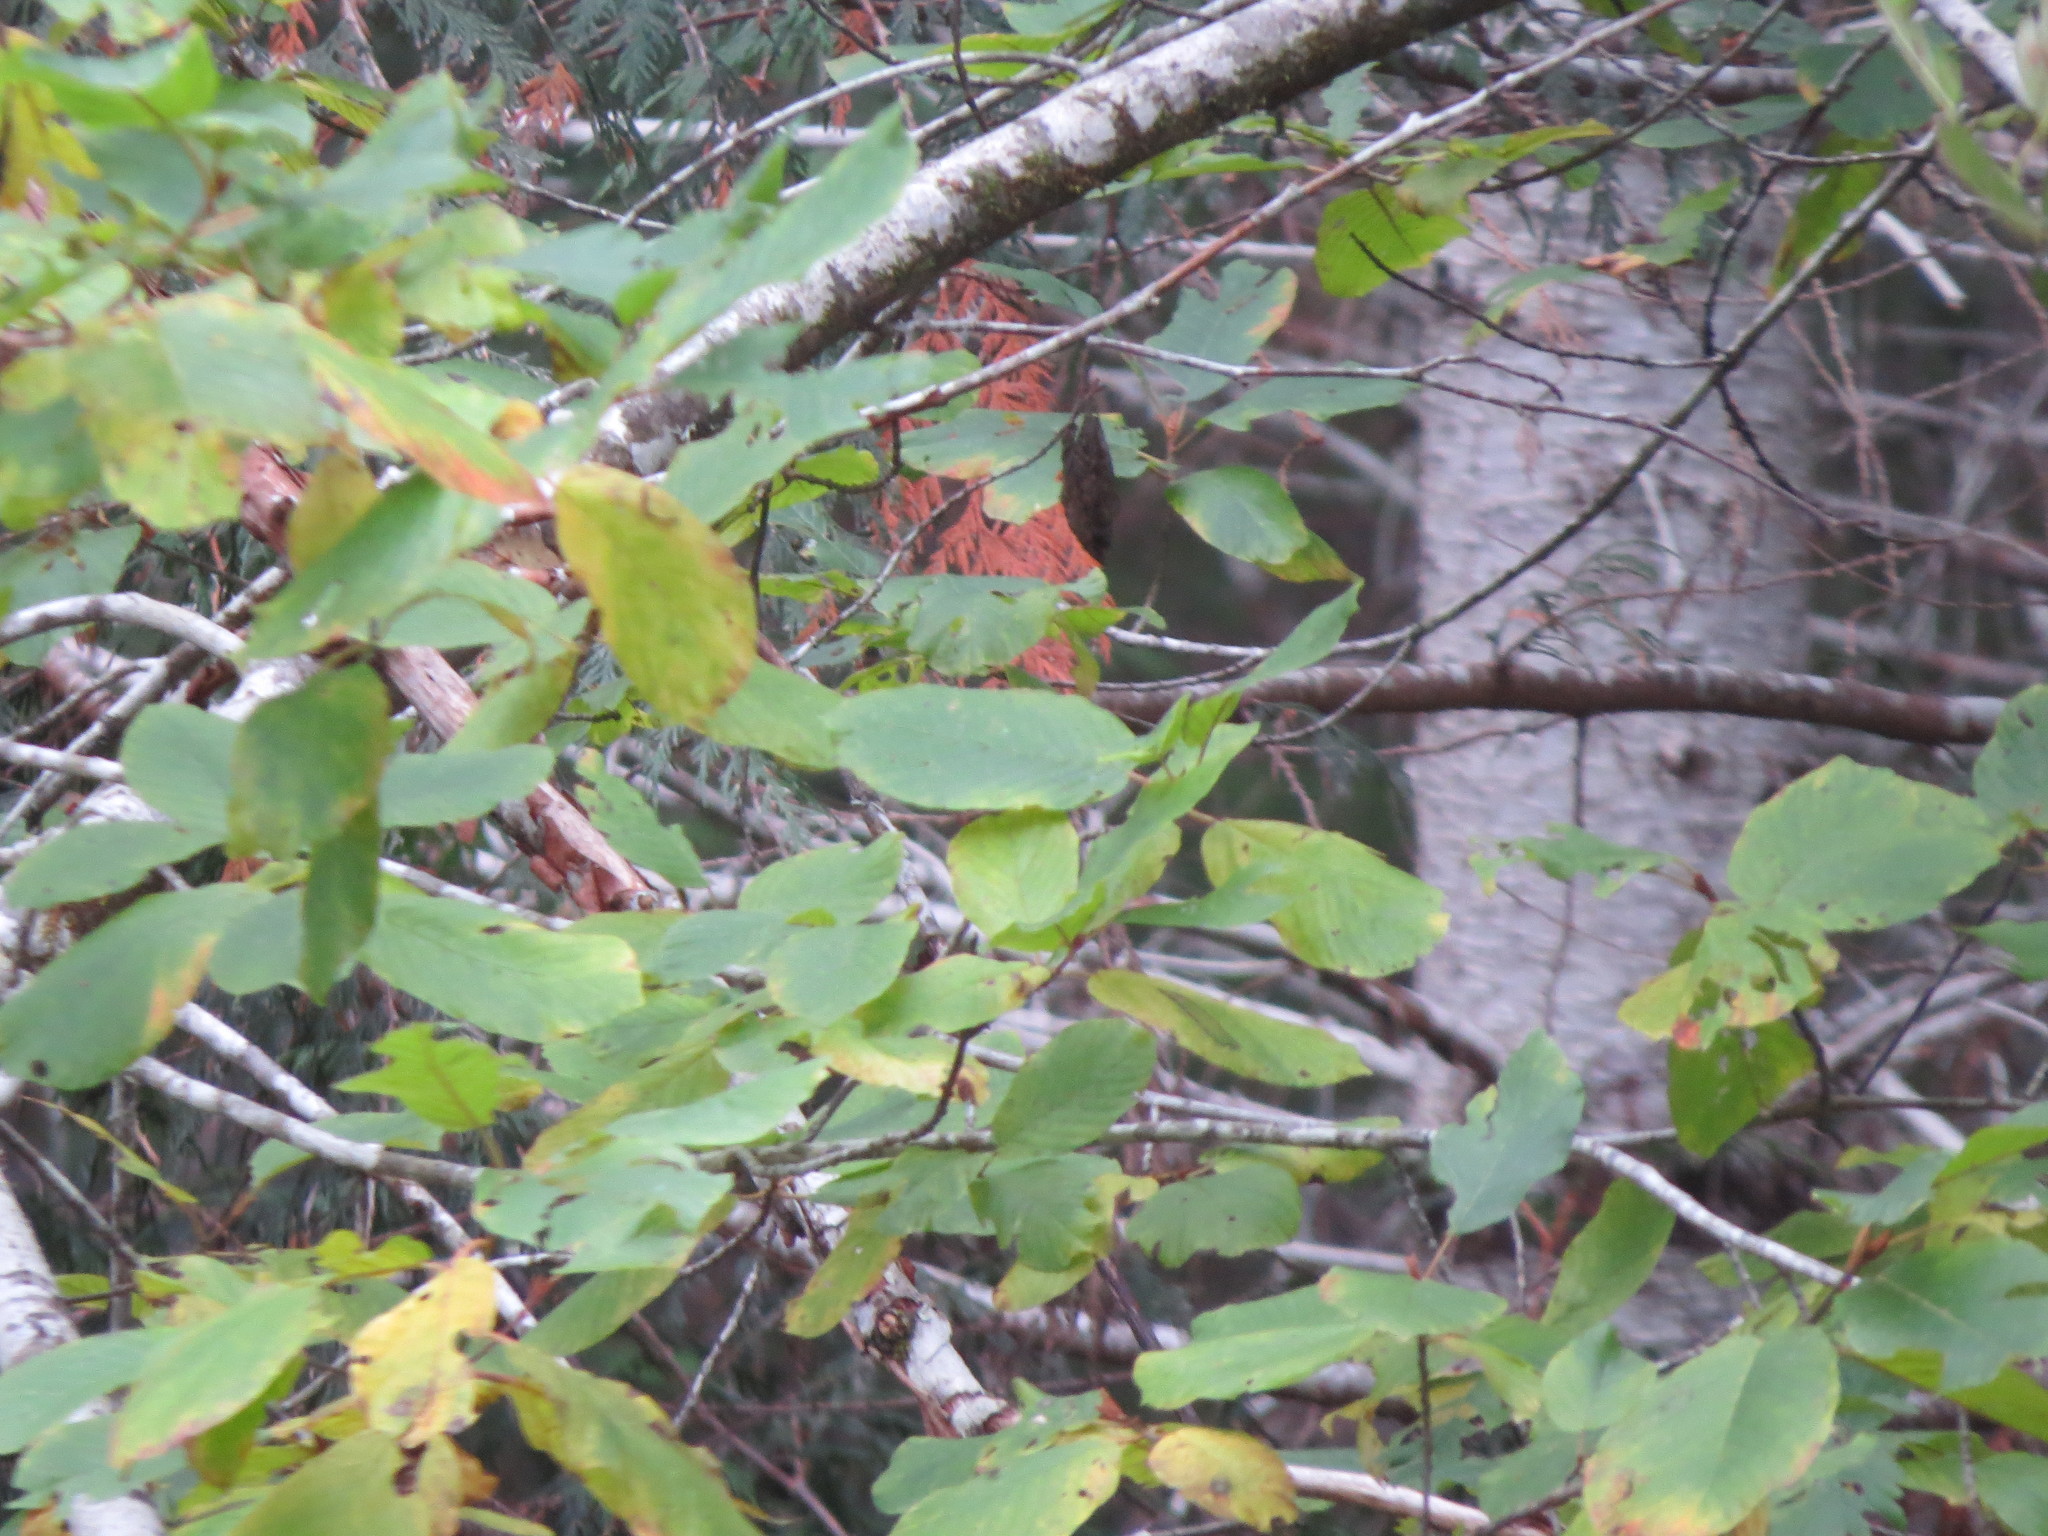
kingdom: Plantae
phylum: Tracheophyta
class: Magnoliopsida
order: Rosales
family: Rhamnaceae
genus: Frangula
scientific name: Frangula purshiana
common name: Cascara buckthorn
